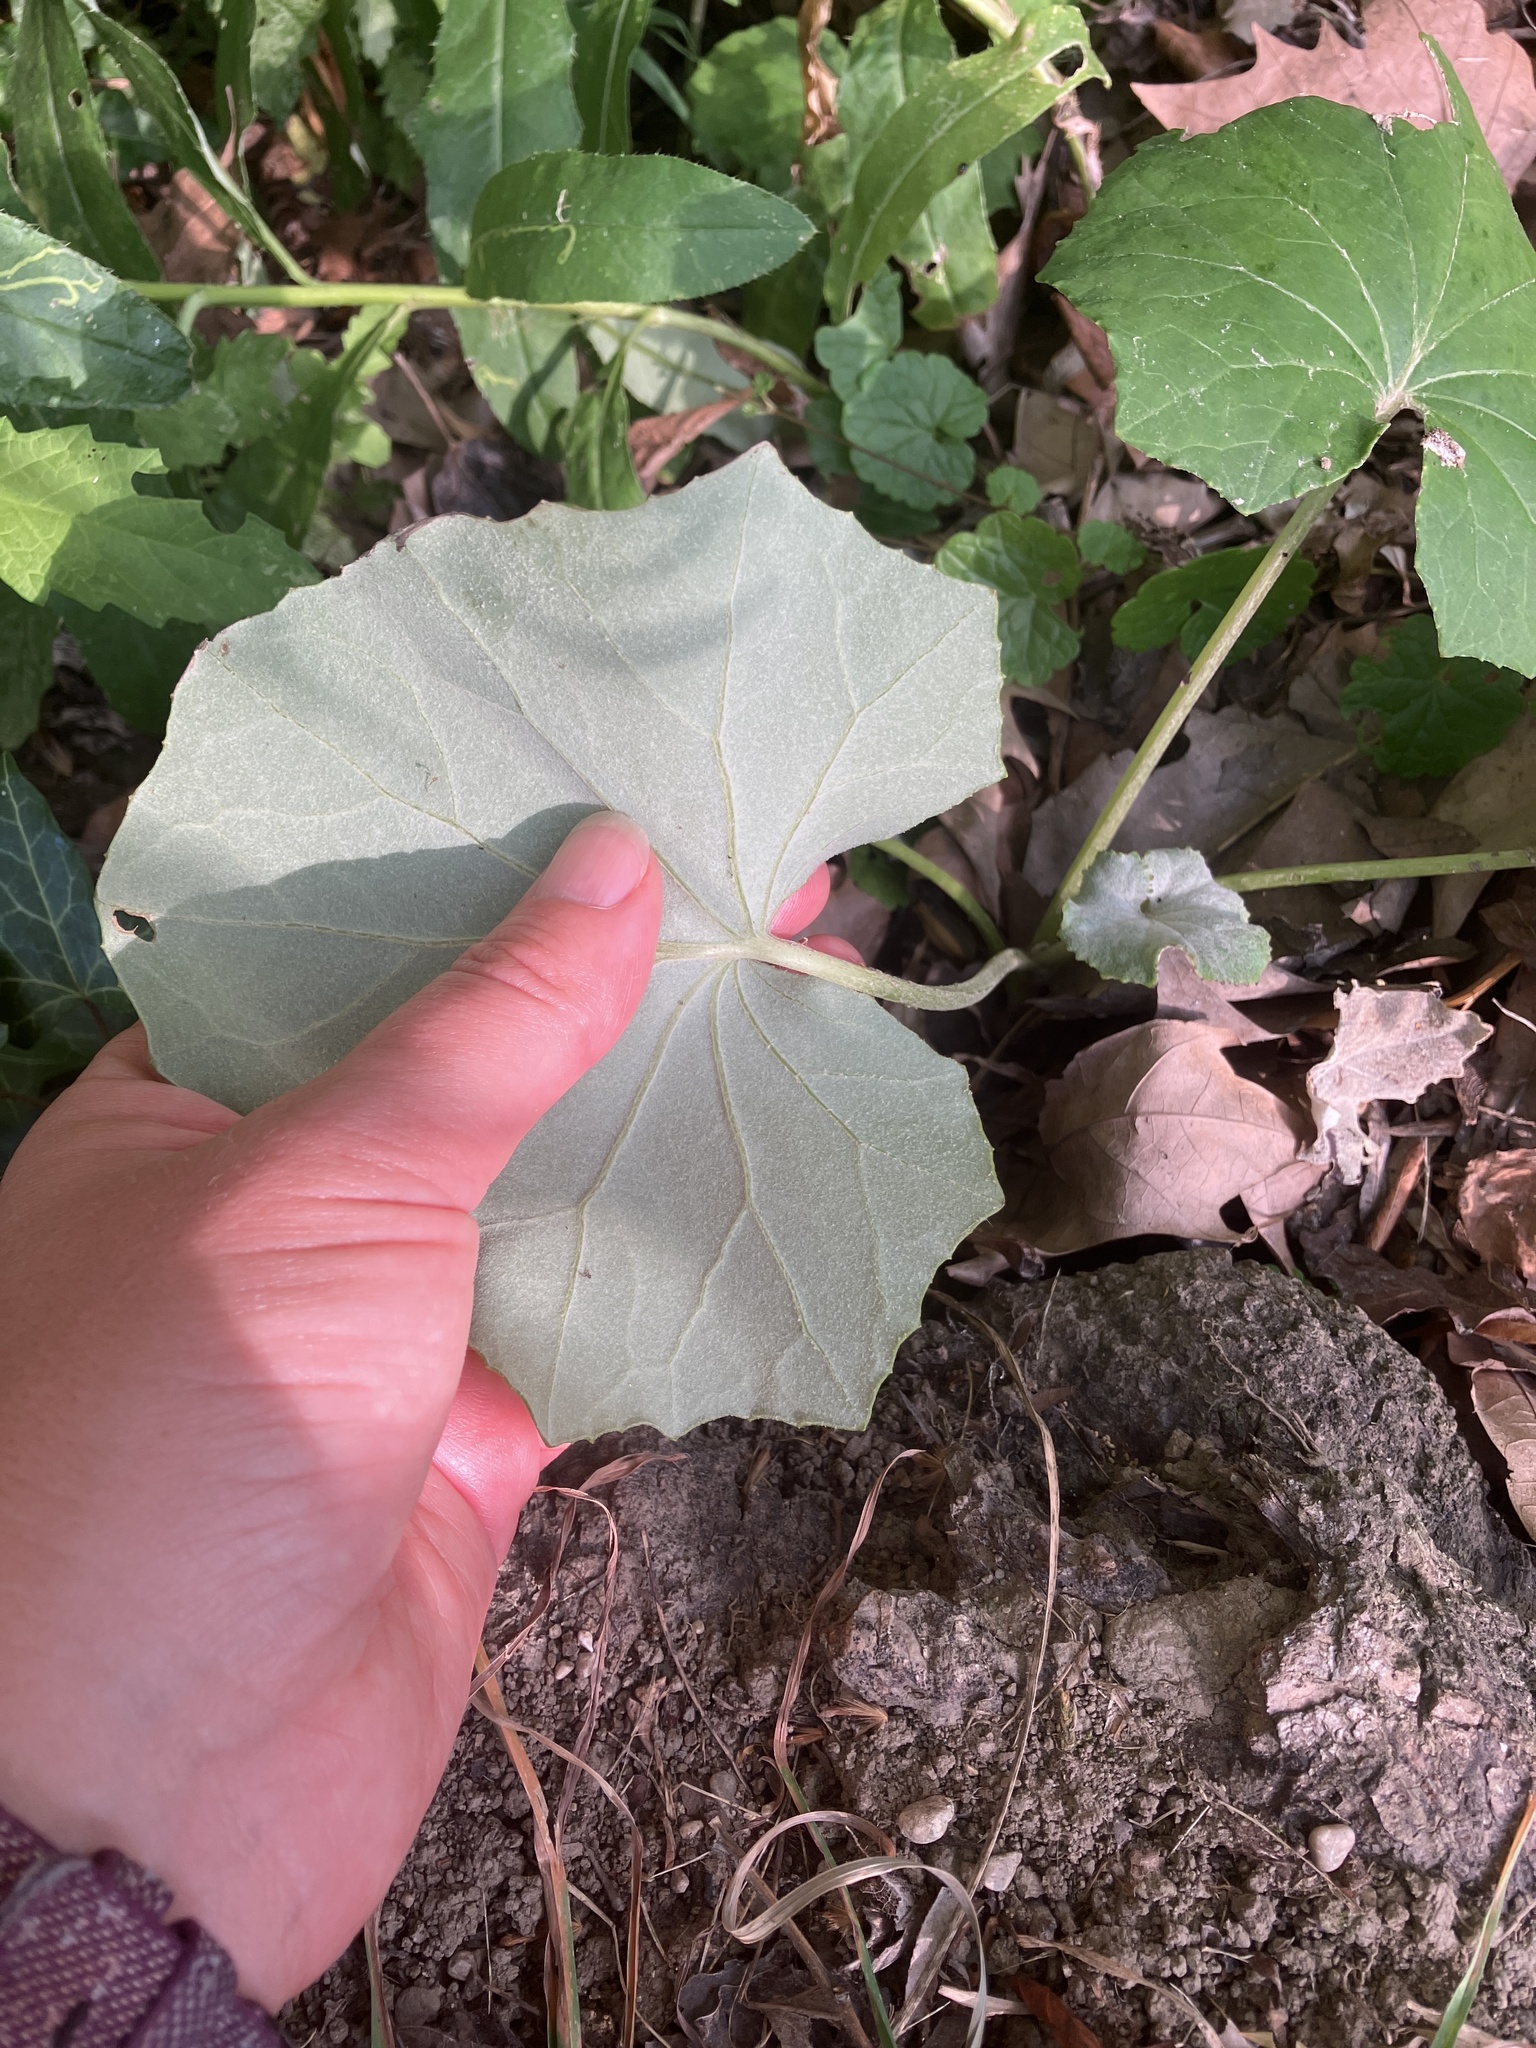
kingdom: Plantae
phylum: Tracheophyta
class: Magnoliopsida
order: Asterales
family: Asteraceae
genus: Tussilago
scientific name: Tussilago farfara
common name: Coltsfoot
